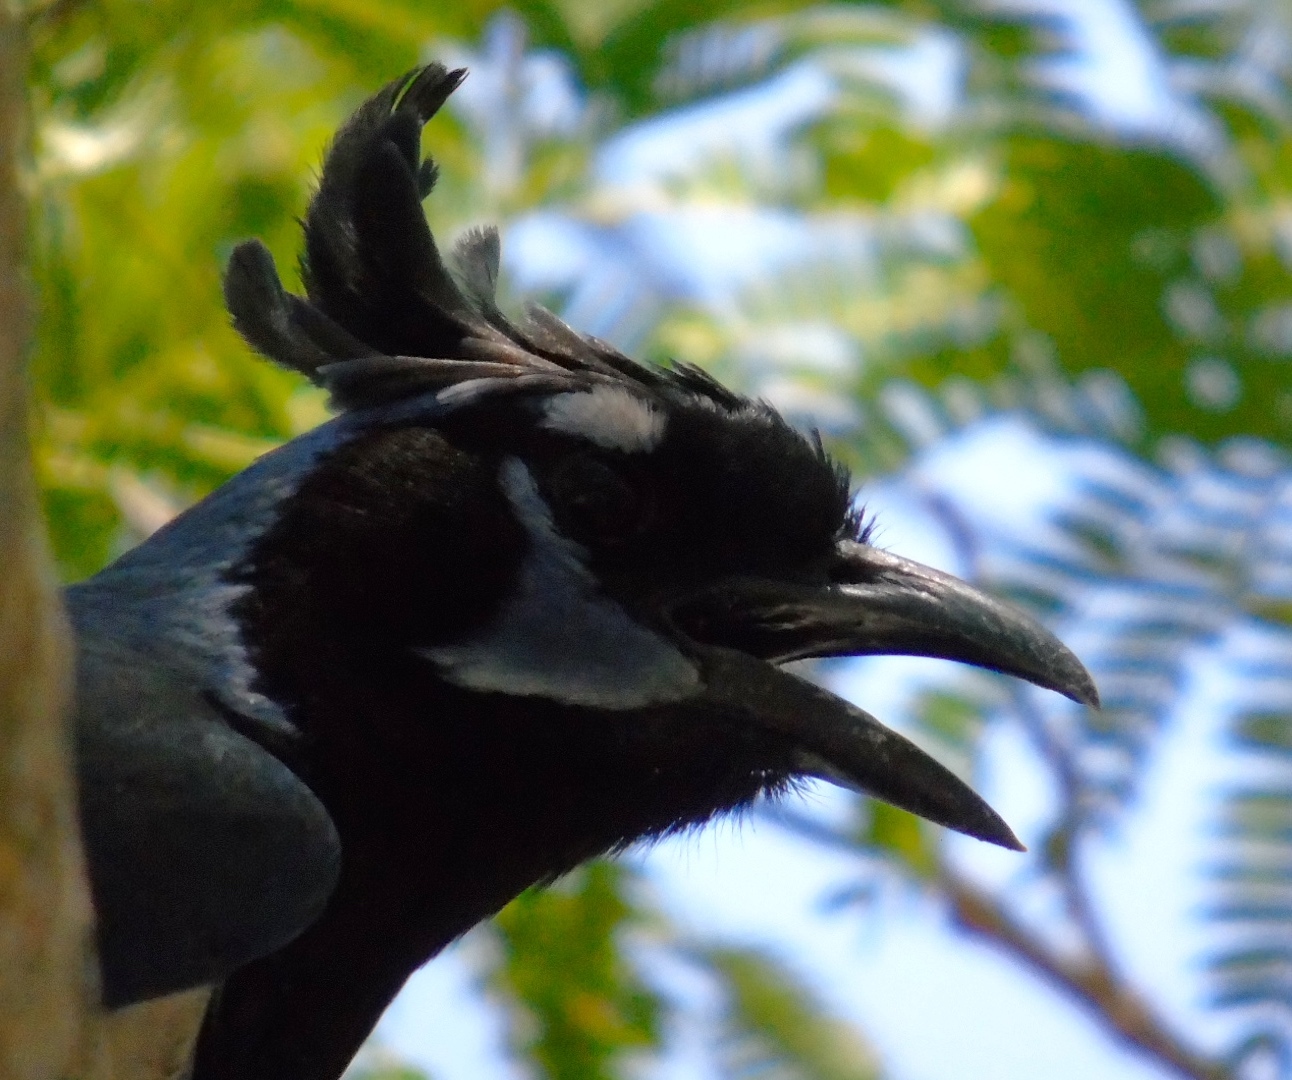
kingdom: Animalia
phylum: Chordata
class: Aves
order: Passeriformes
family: Corvidae
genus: Calocitta
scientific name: Calocitta colliei
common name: Black-throated magpie-jay
